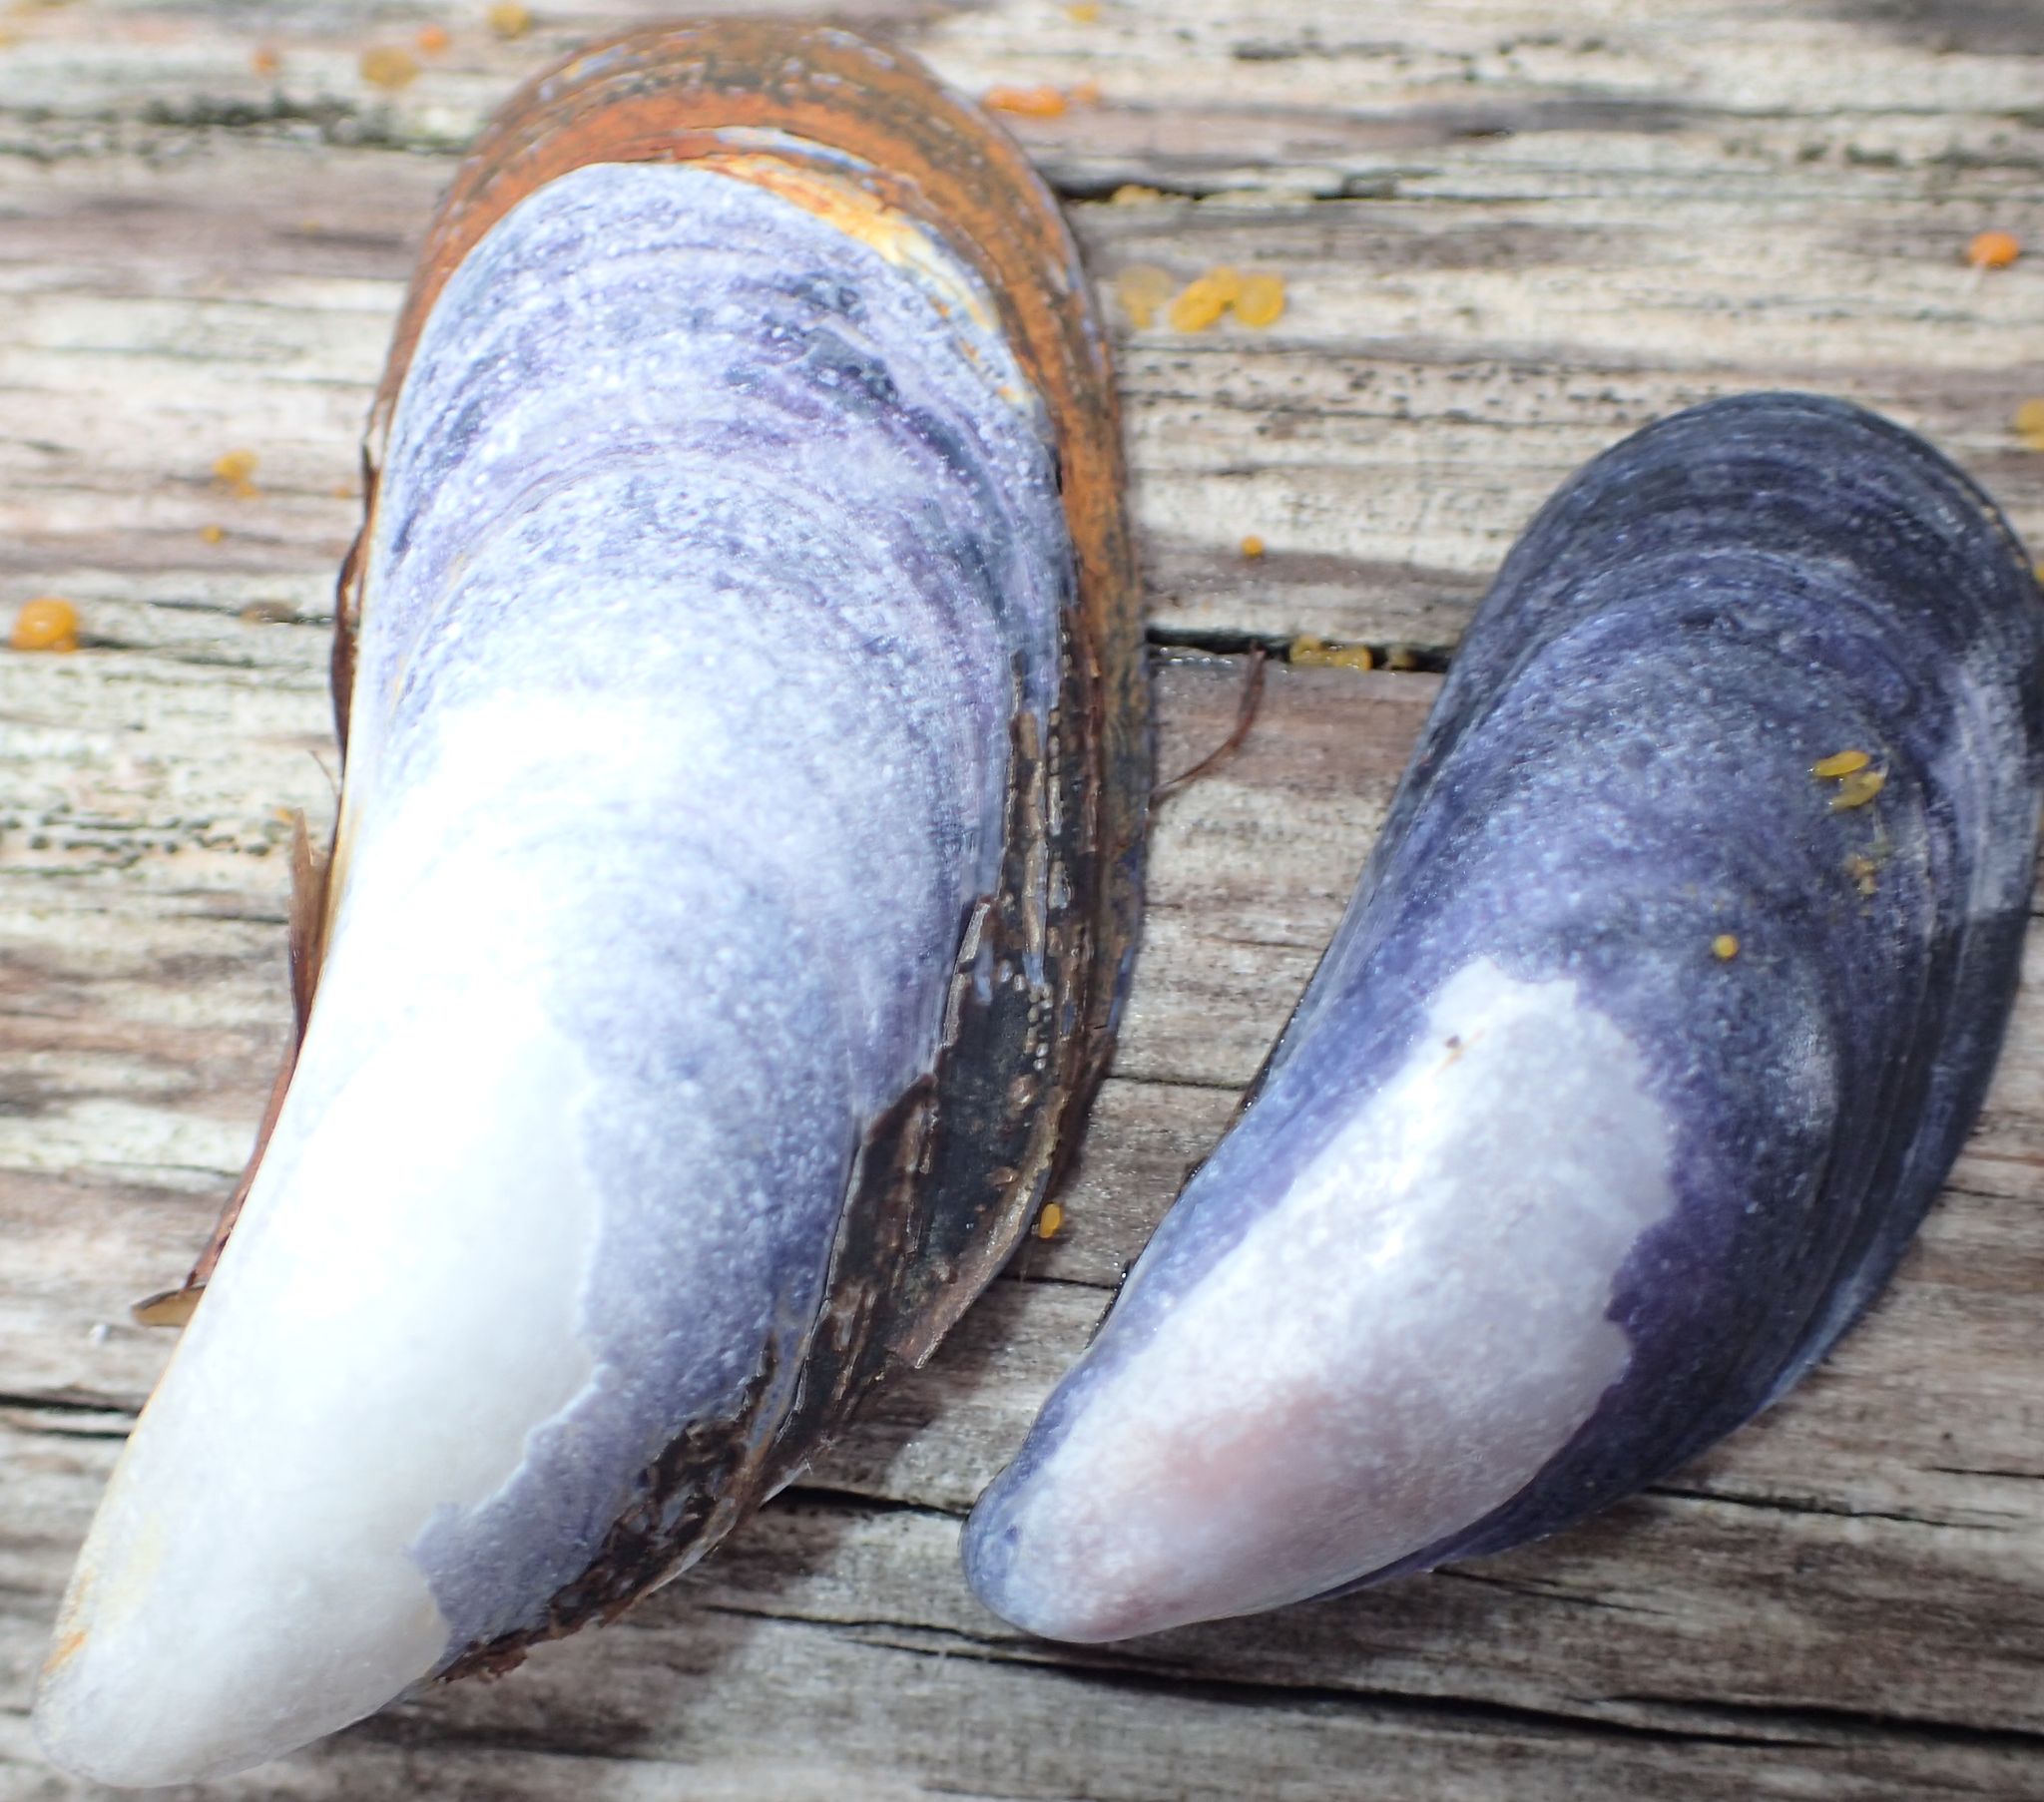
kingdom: Animalia
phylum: Mollusca
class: Bivalvia
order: Mytilida
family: Mytilidae
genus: Mytilus
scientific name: Mytilus trossulus
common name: Northern blue mussel
